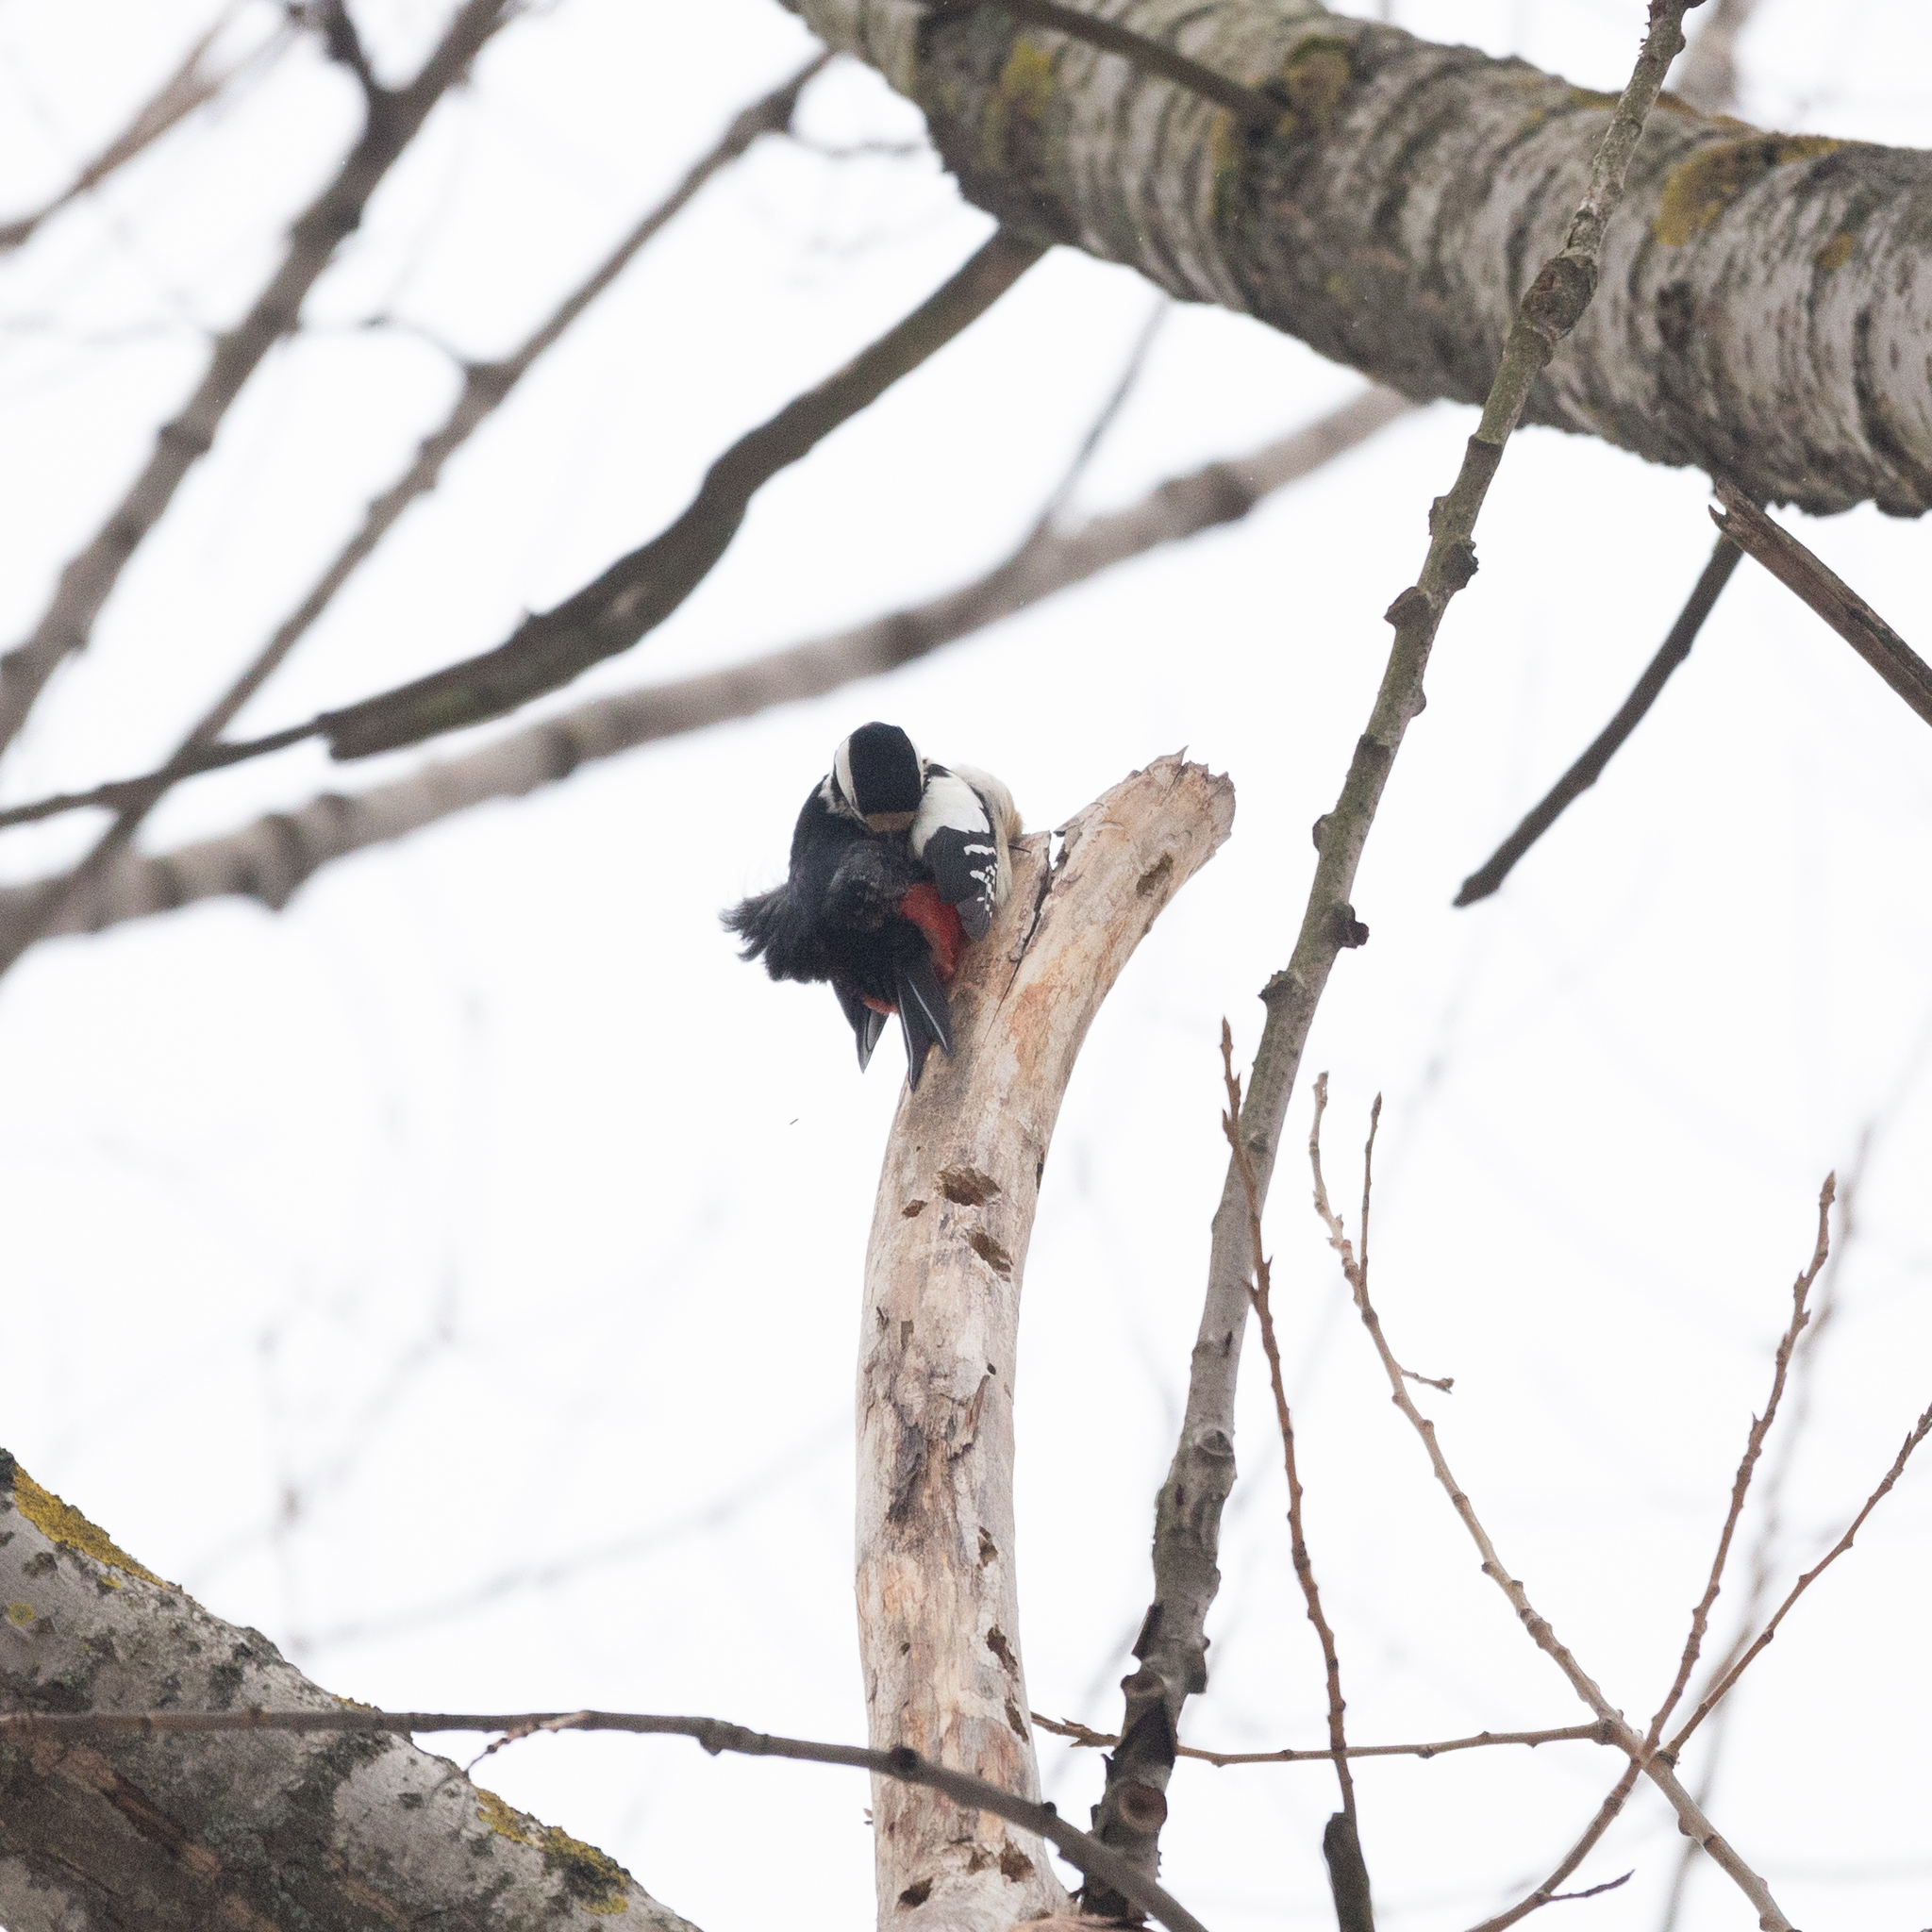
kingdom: Animalia
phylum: Chordata
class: Aves
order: Piciformes
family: Picidae
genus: Dendrocopos
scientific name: Dendrocopos major
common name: Great spotted woodpecker
